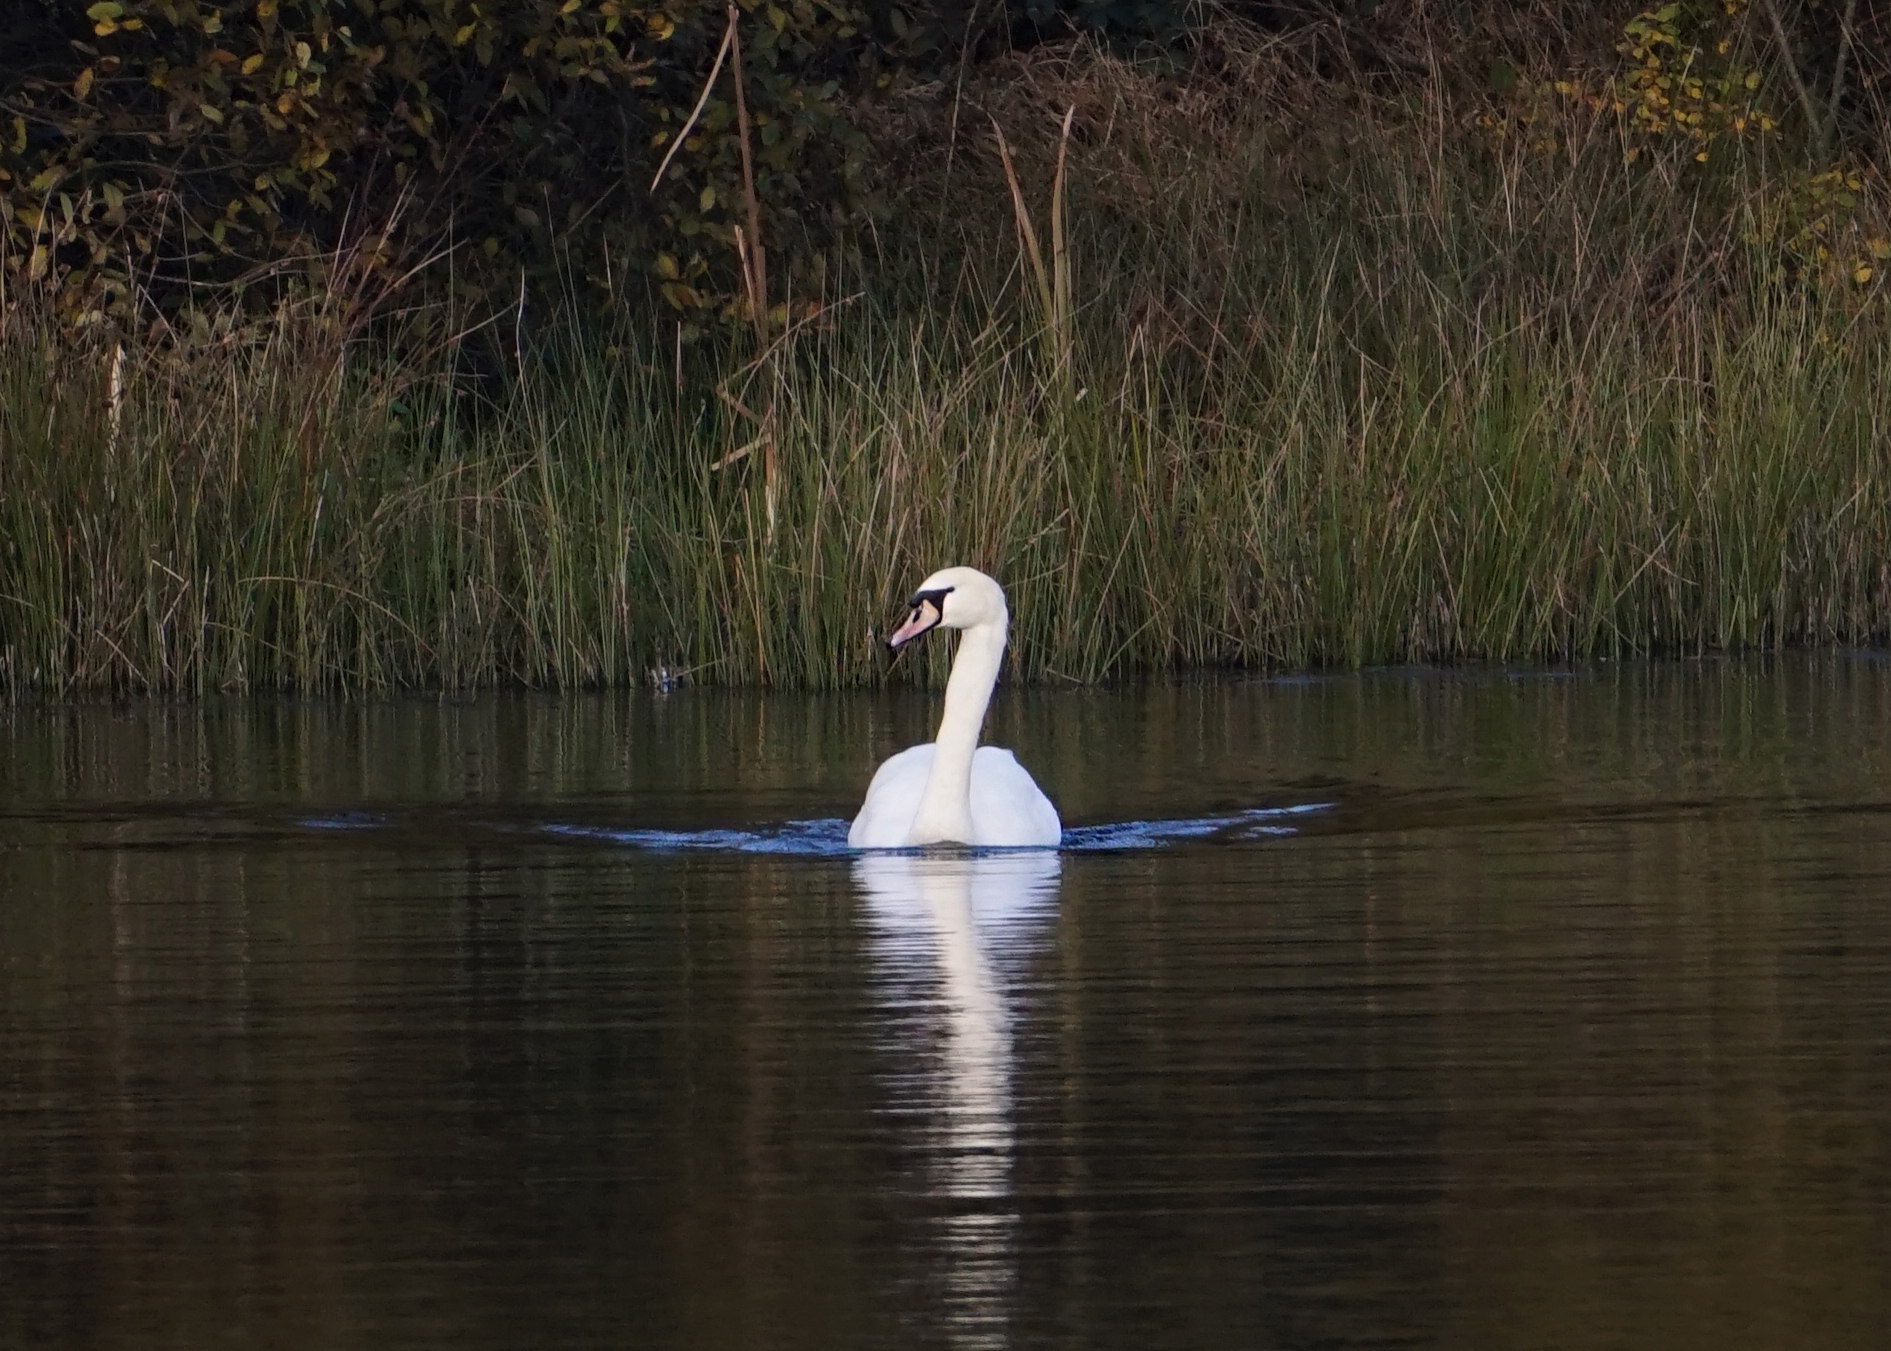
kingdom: Animalia
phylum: Chordata
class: Aves
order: Anseriformes
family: Anatidae
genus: Cygnus
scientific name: Cygnus olor
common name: Mute swan
